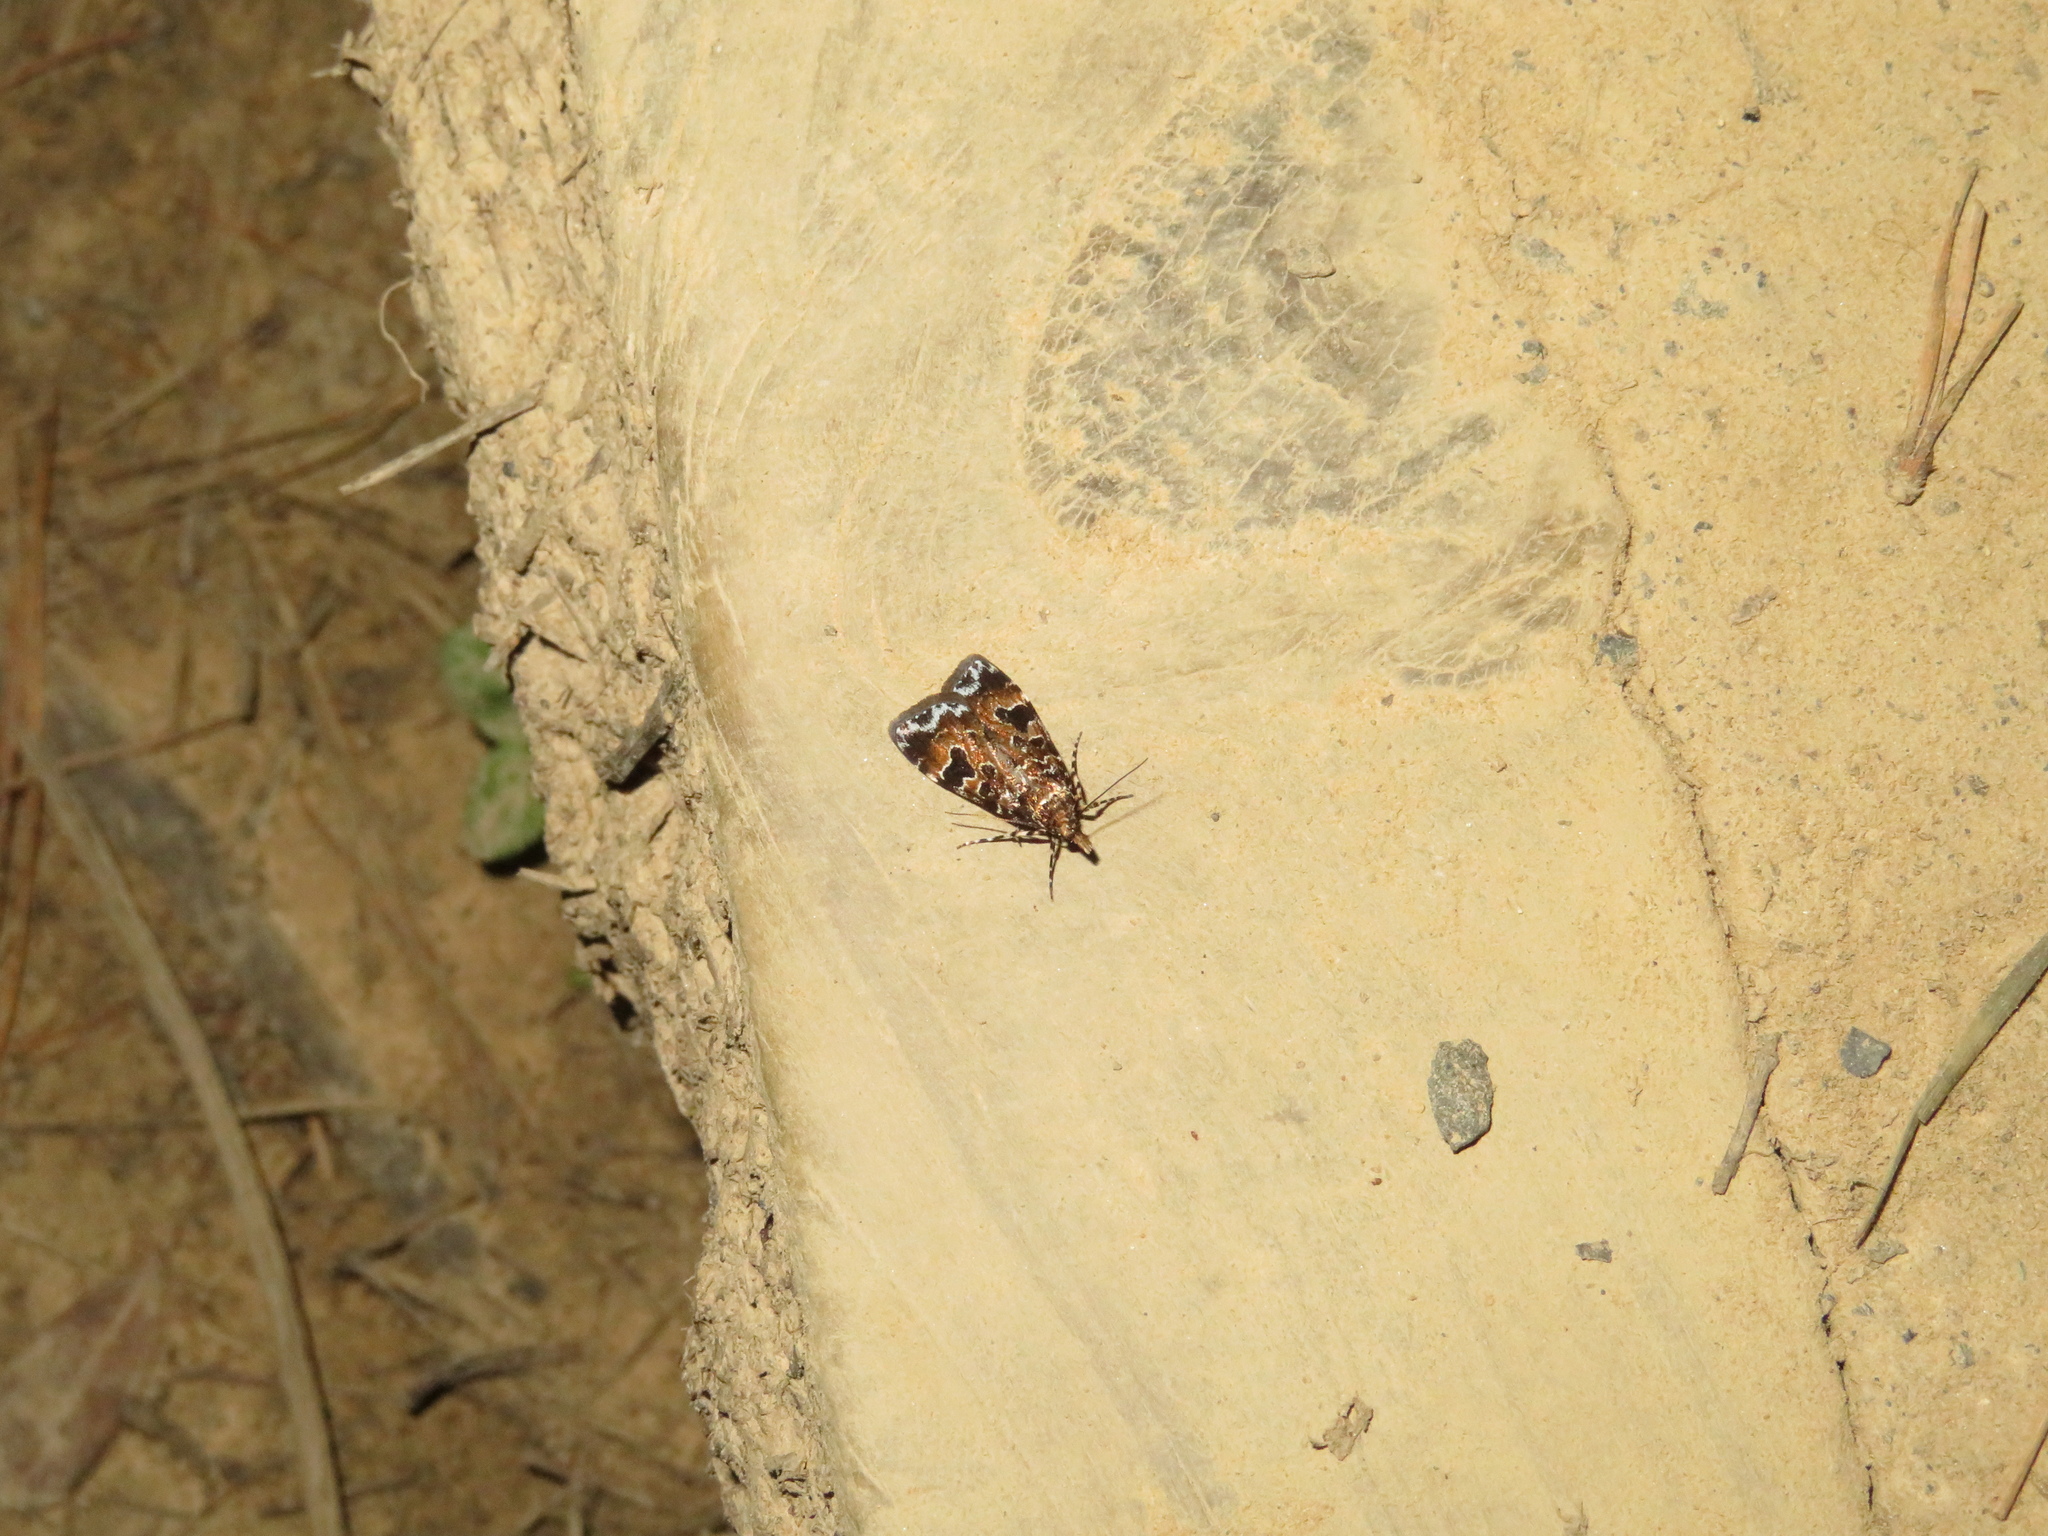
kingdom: Animalia
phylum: Arthropoda
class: Insecta
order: Lepidoptera
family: Crambidae
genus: Scoparia
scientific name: Scoparia ustimacula
